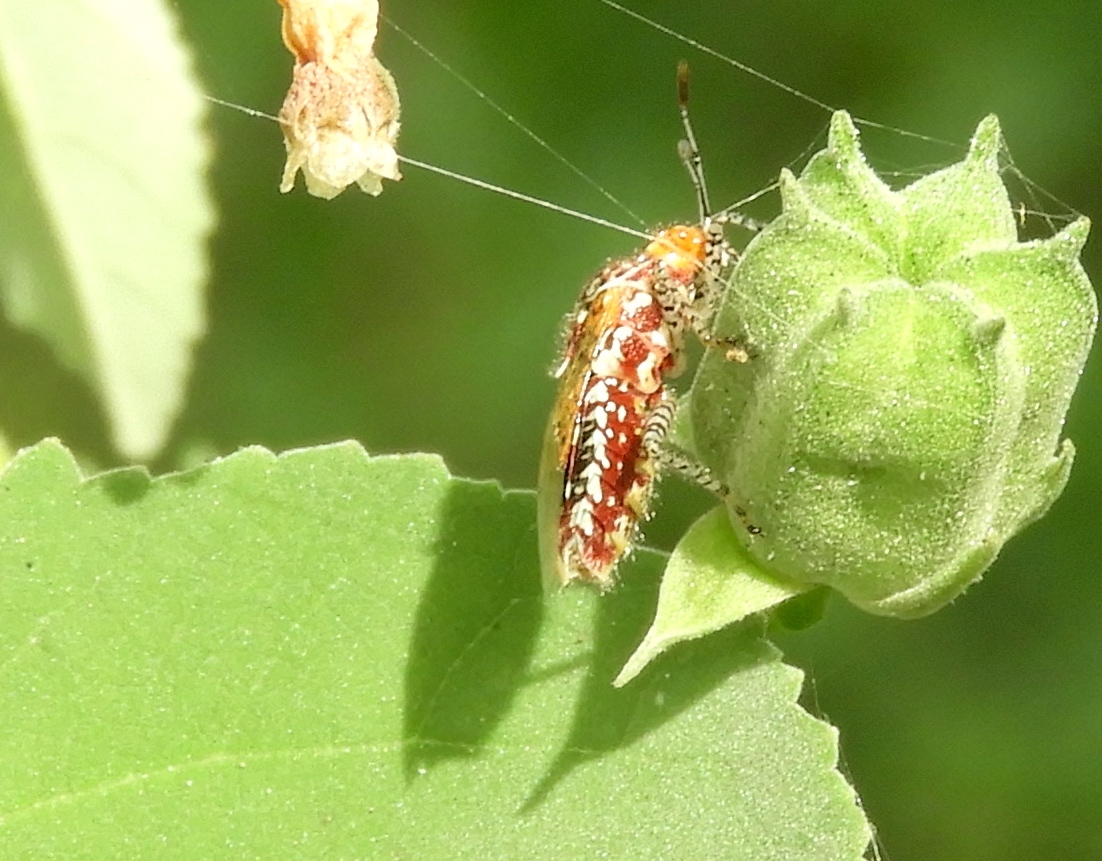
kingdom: Animalia
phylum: Arthropoda
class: Insecta
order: Hemiptera
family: Rhopalidae
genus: Niesthrea
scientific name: Niesthrea
